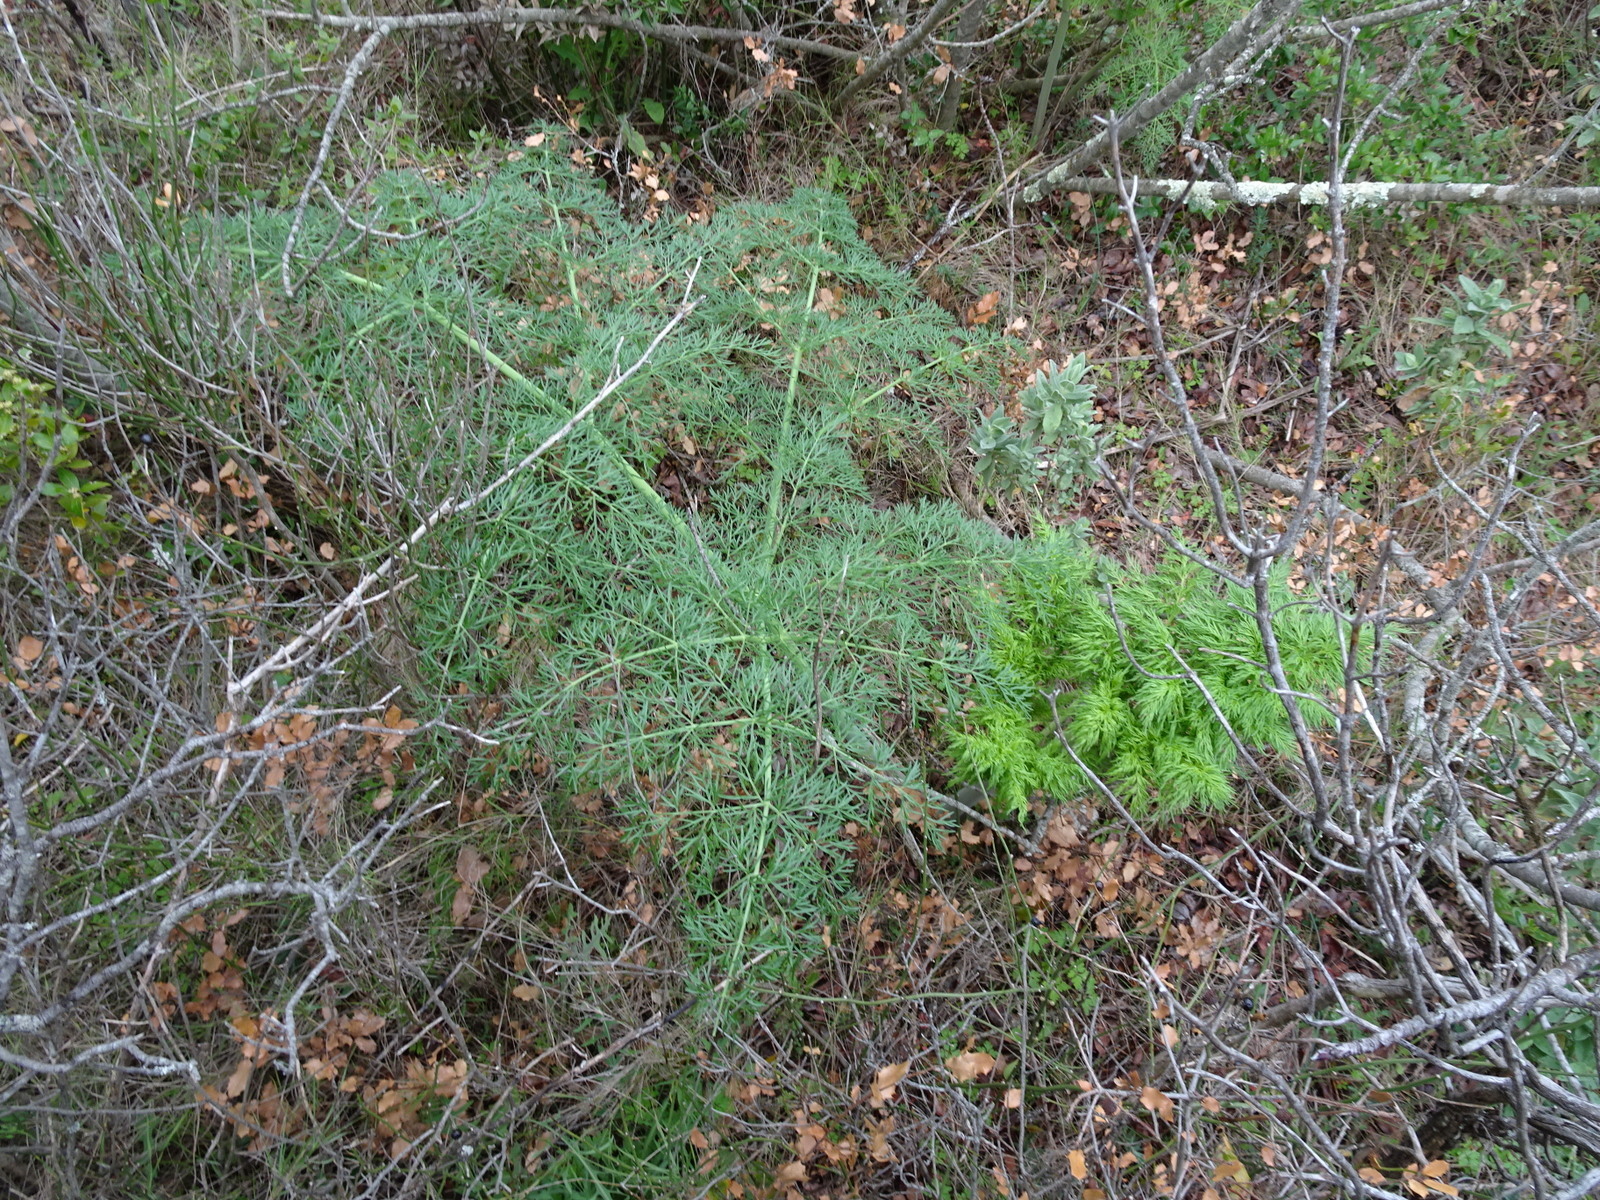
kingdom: Plantae
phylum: Tracheophyta
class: Magnoliopsida
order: Apiales
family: Apiaceae
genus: Ferula
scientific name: Ferula glauca
